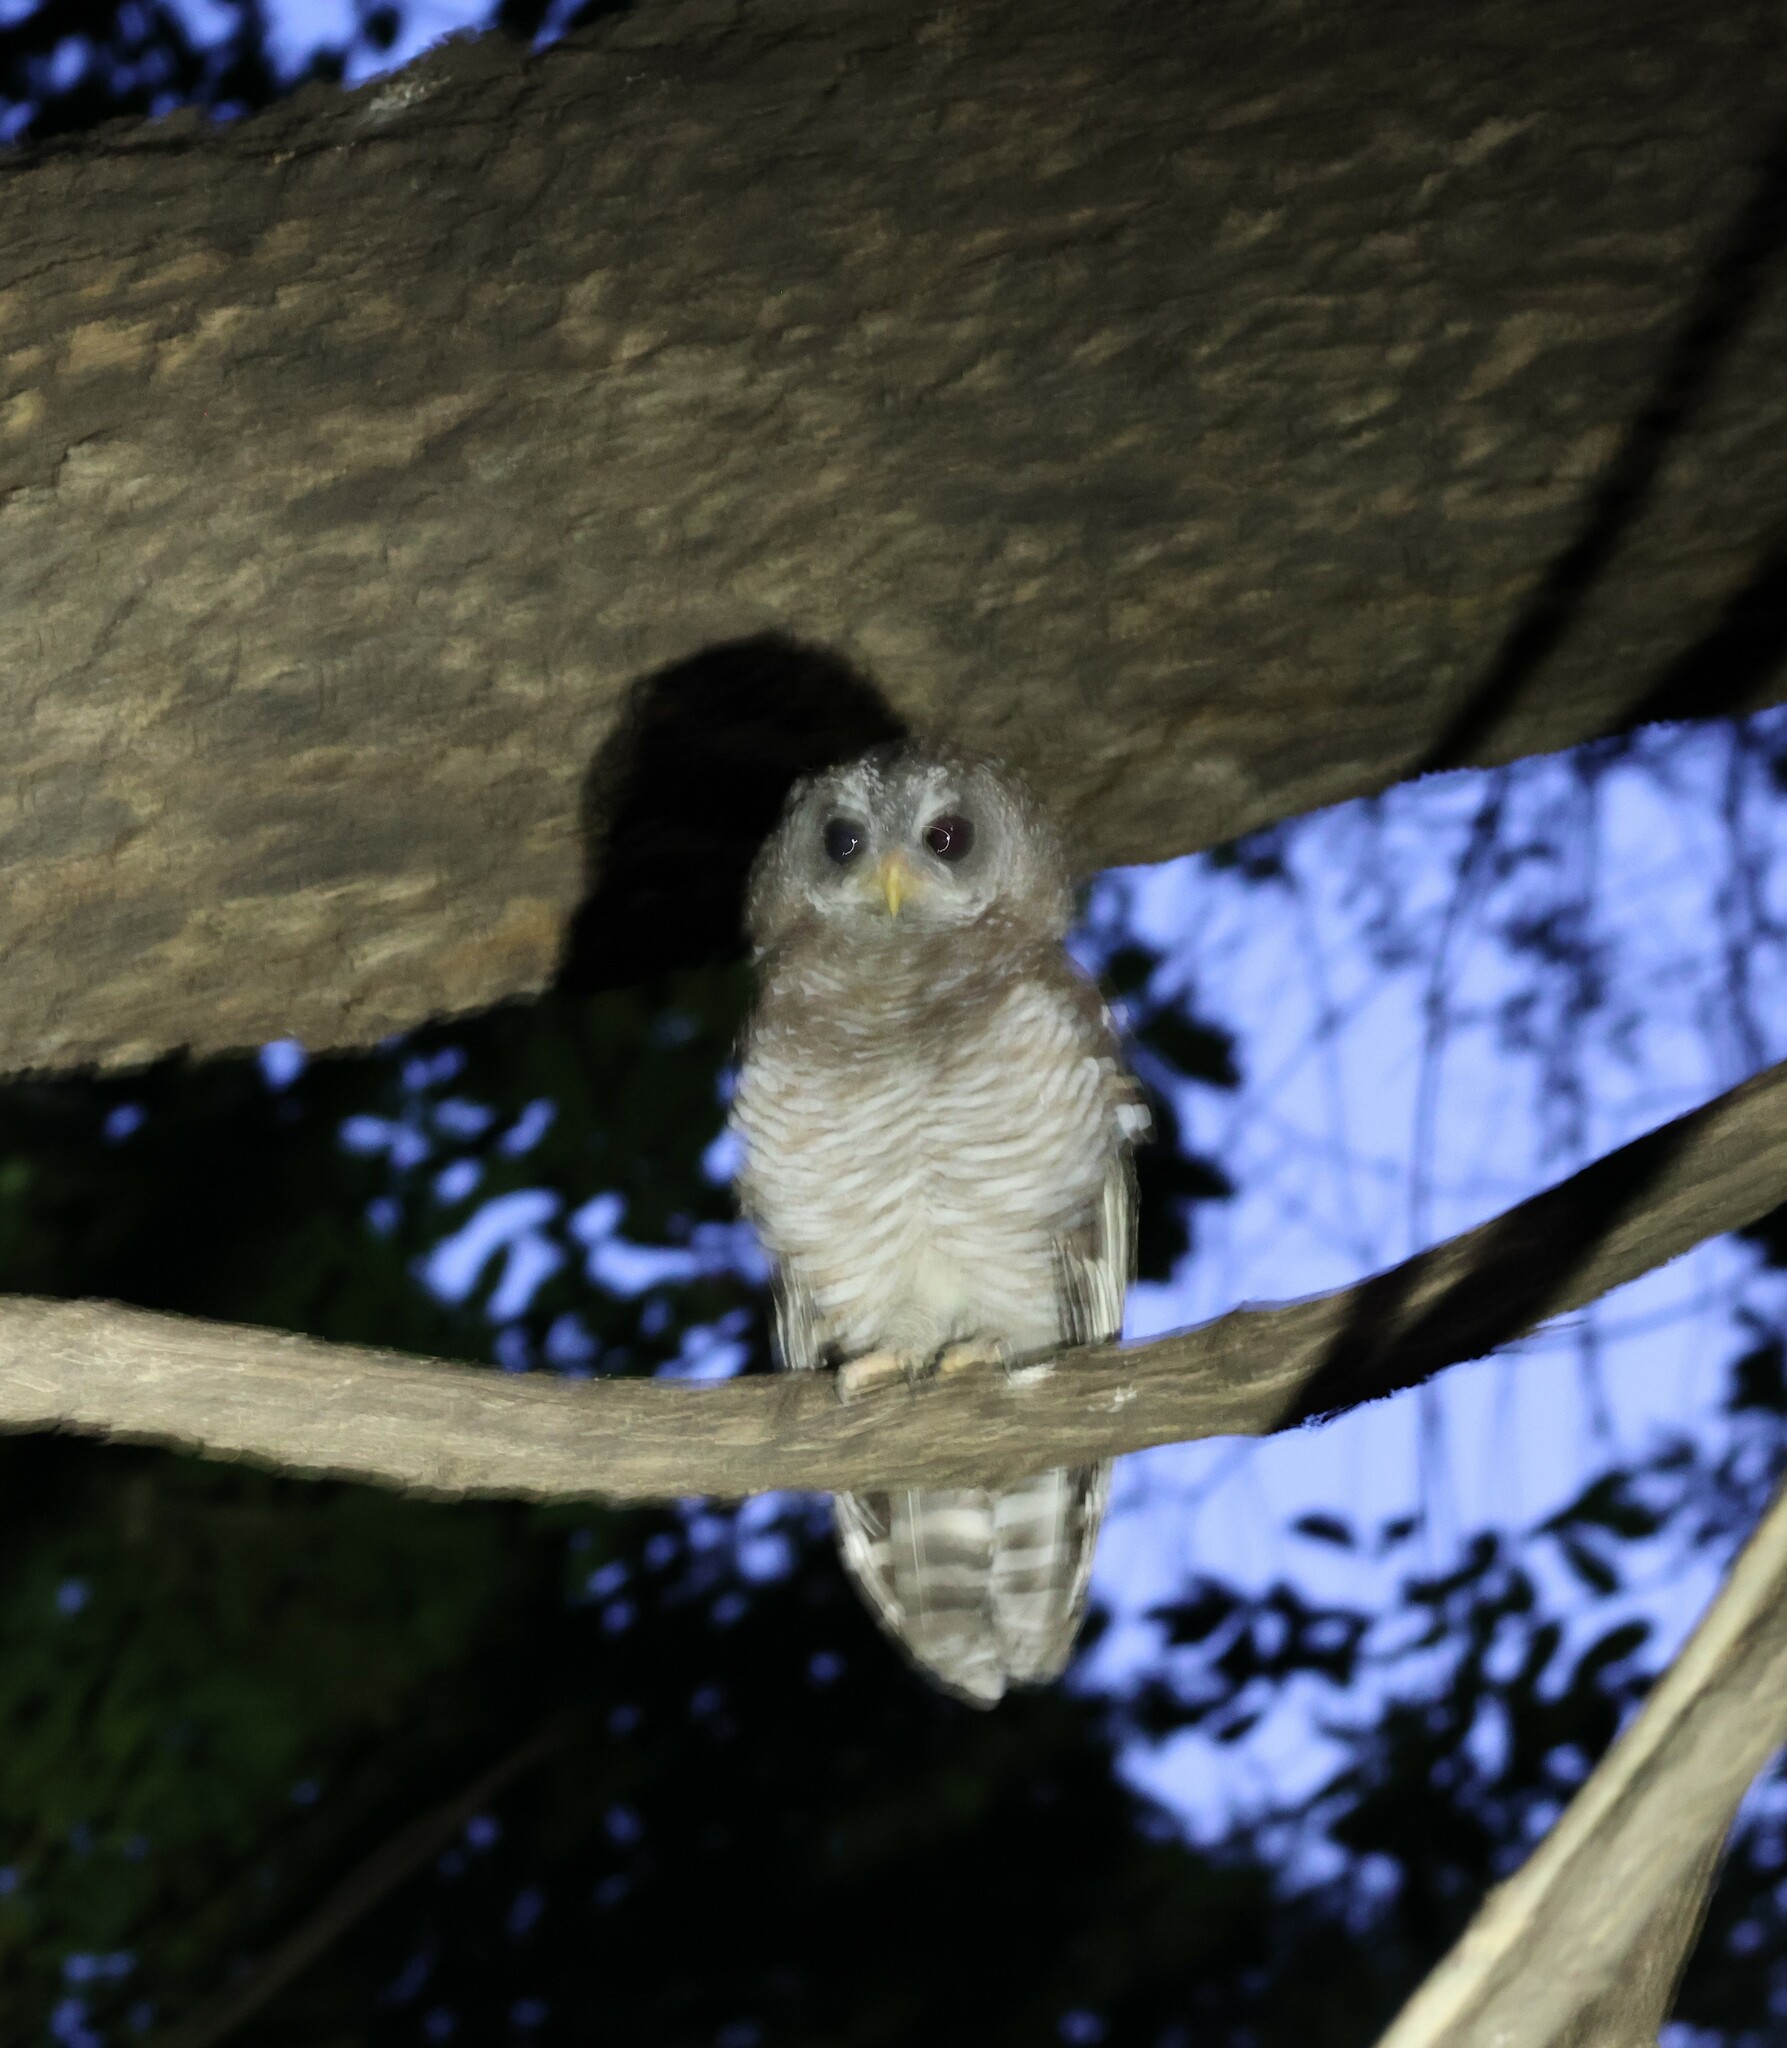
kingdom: Animalia
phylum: Chordata
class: Aves
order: Strigiformes
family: Strigidae
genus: Strix
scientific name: Strix woodfordii
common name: African wood owl
